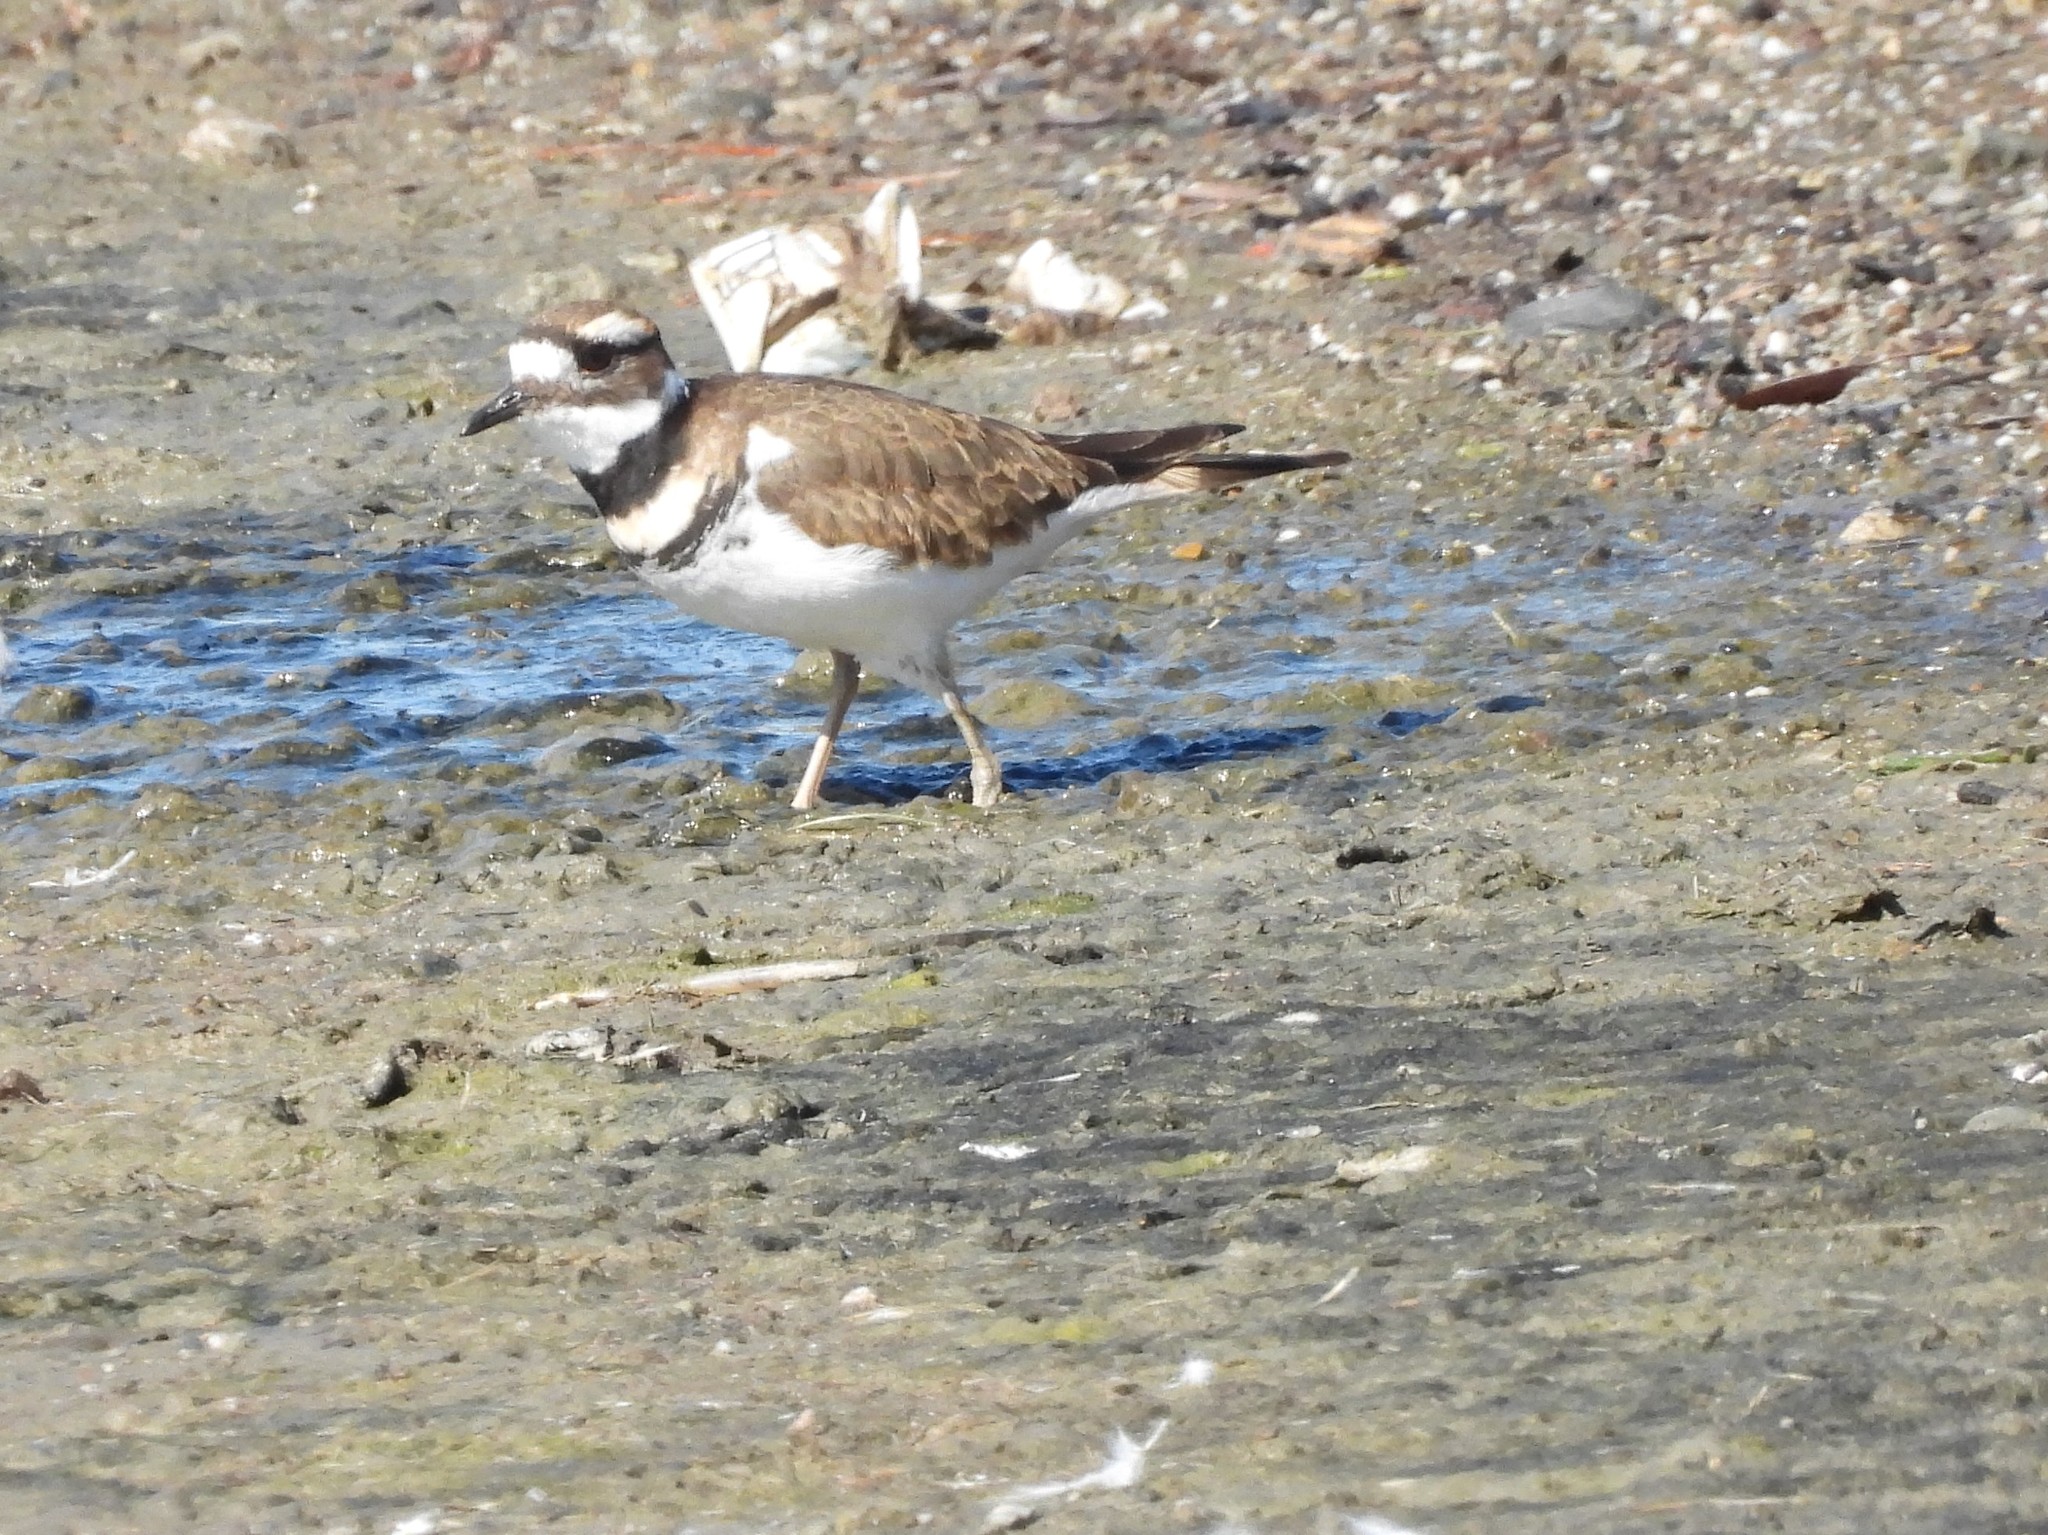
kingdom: Animalia
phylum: Chordata
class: Aves
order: Charadriiformes
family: Charadriidae
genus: Charadrius
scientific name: Charadrius vociferus
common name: Killdeer
